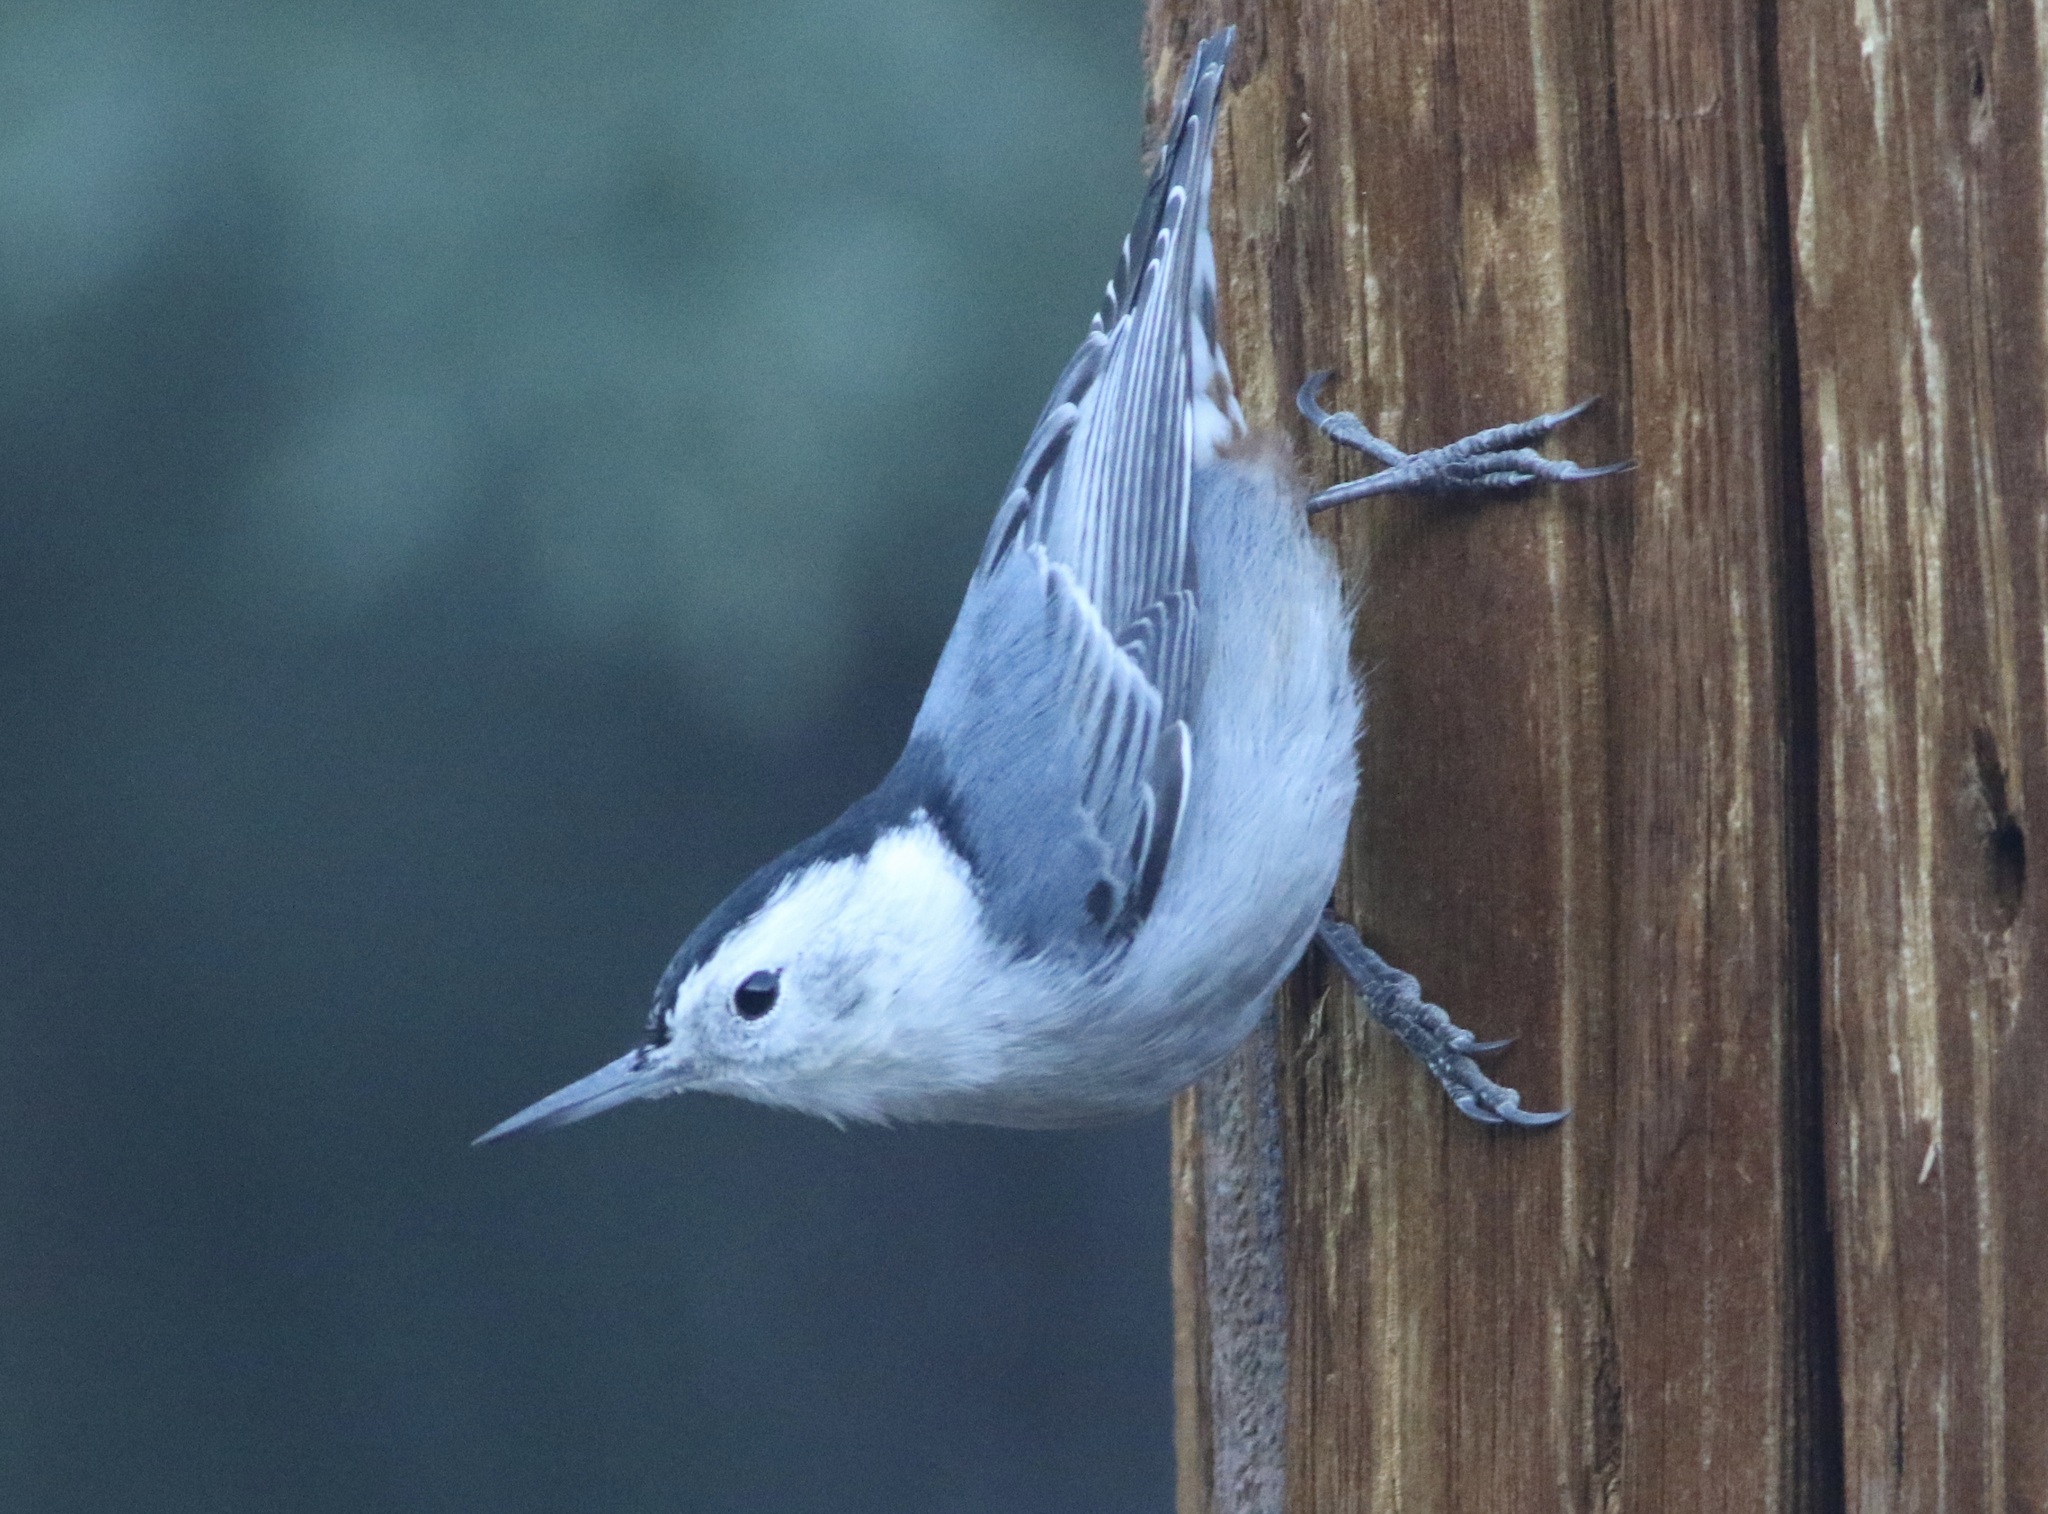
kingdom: Animalia
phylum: Chordata
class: Aves
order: Passeriformes
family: Sittidae
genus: Sitta
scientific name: Sitta carolinensis
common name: White-breasted nuthatch
